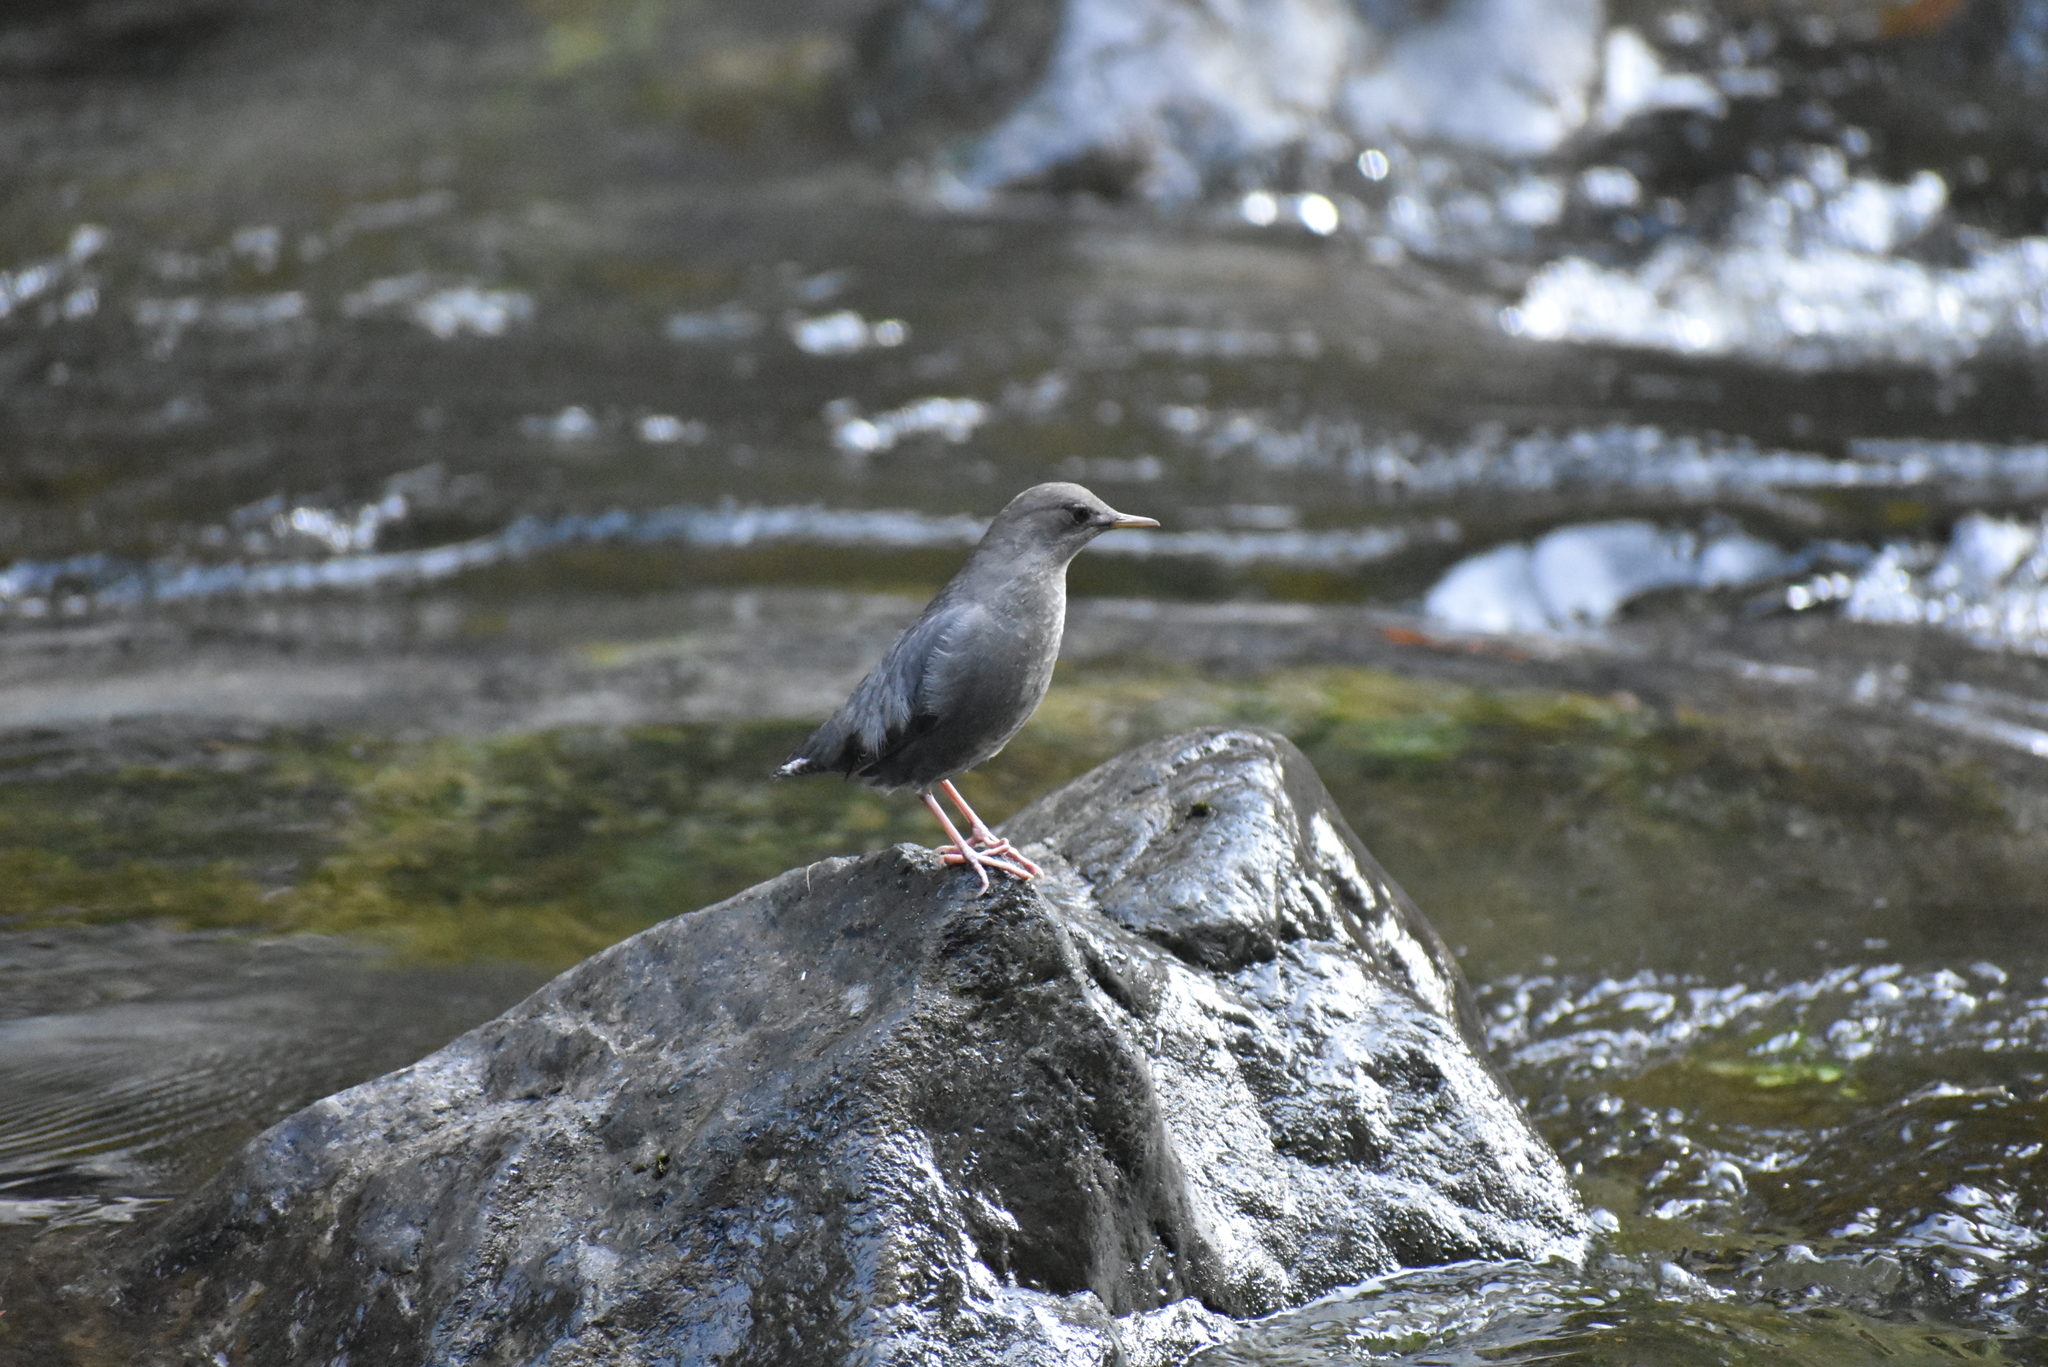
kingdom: Animalia
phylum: Chordata
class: Aves
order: Passeriformes
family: Cinclidae
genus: Cinclus
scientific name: Cinclus mexicanus
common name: American dipper
